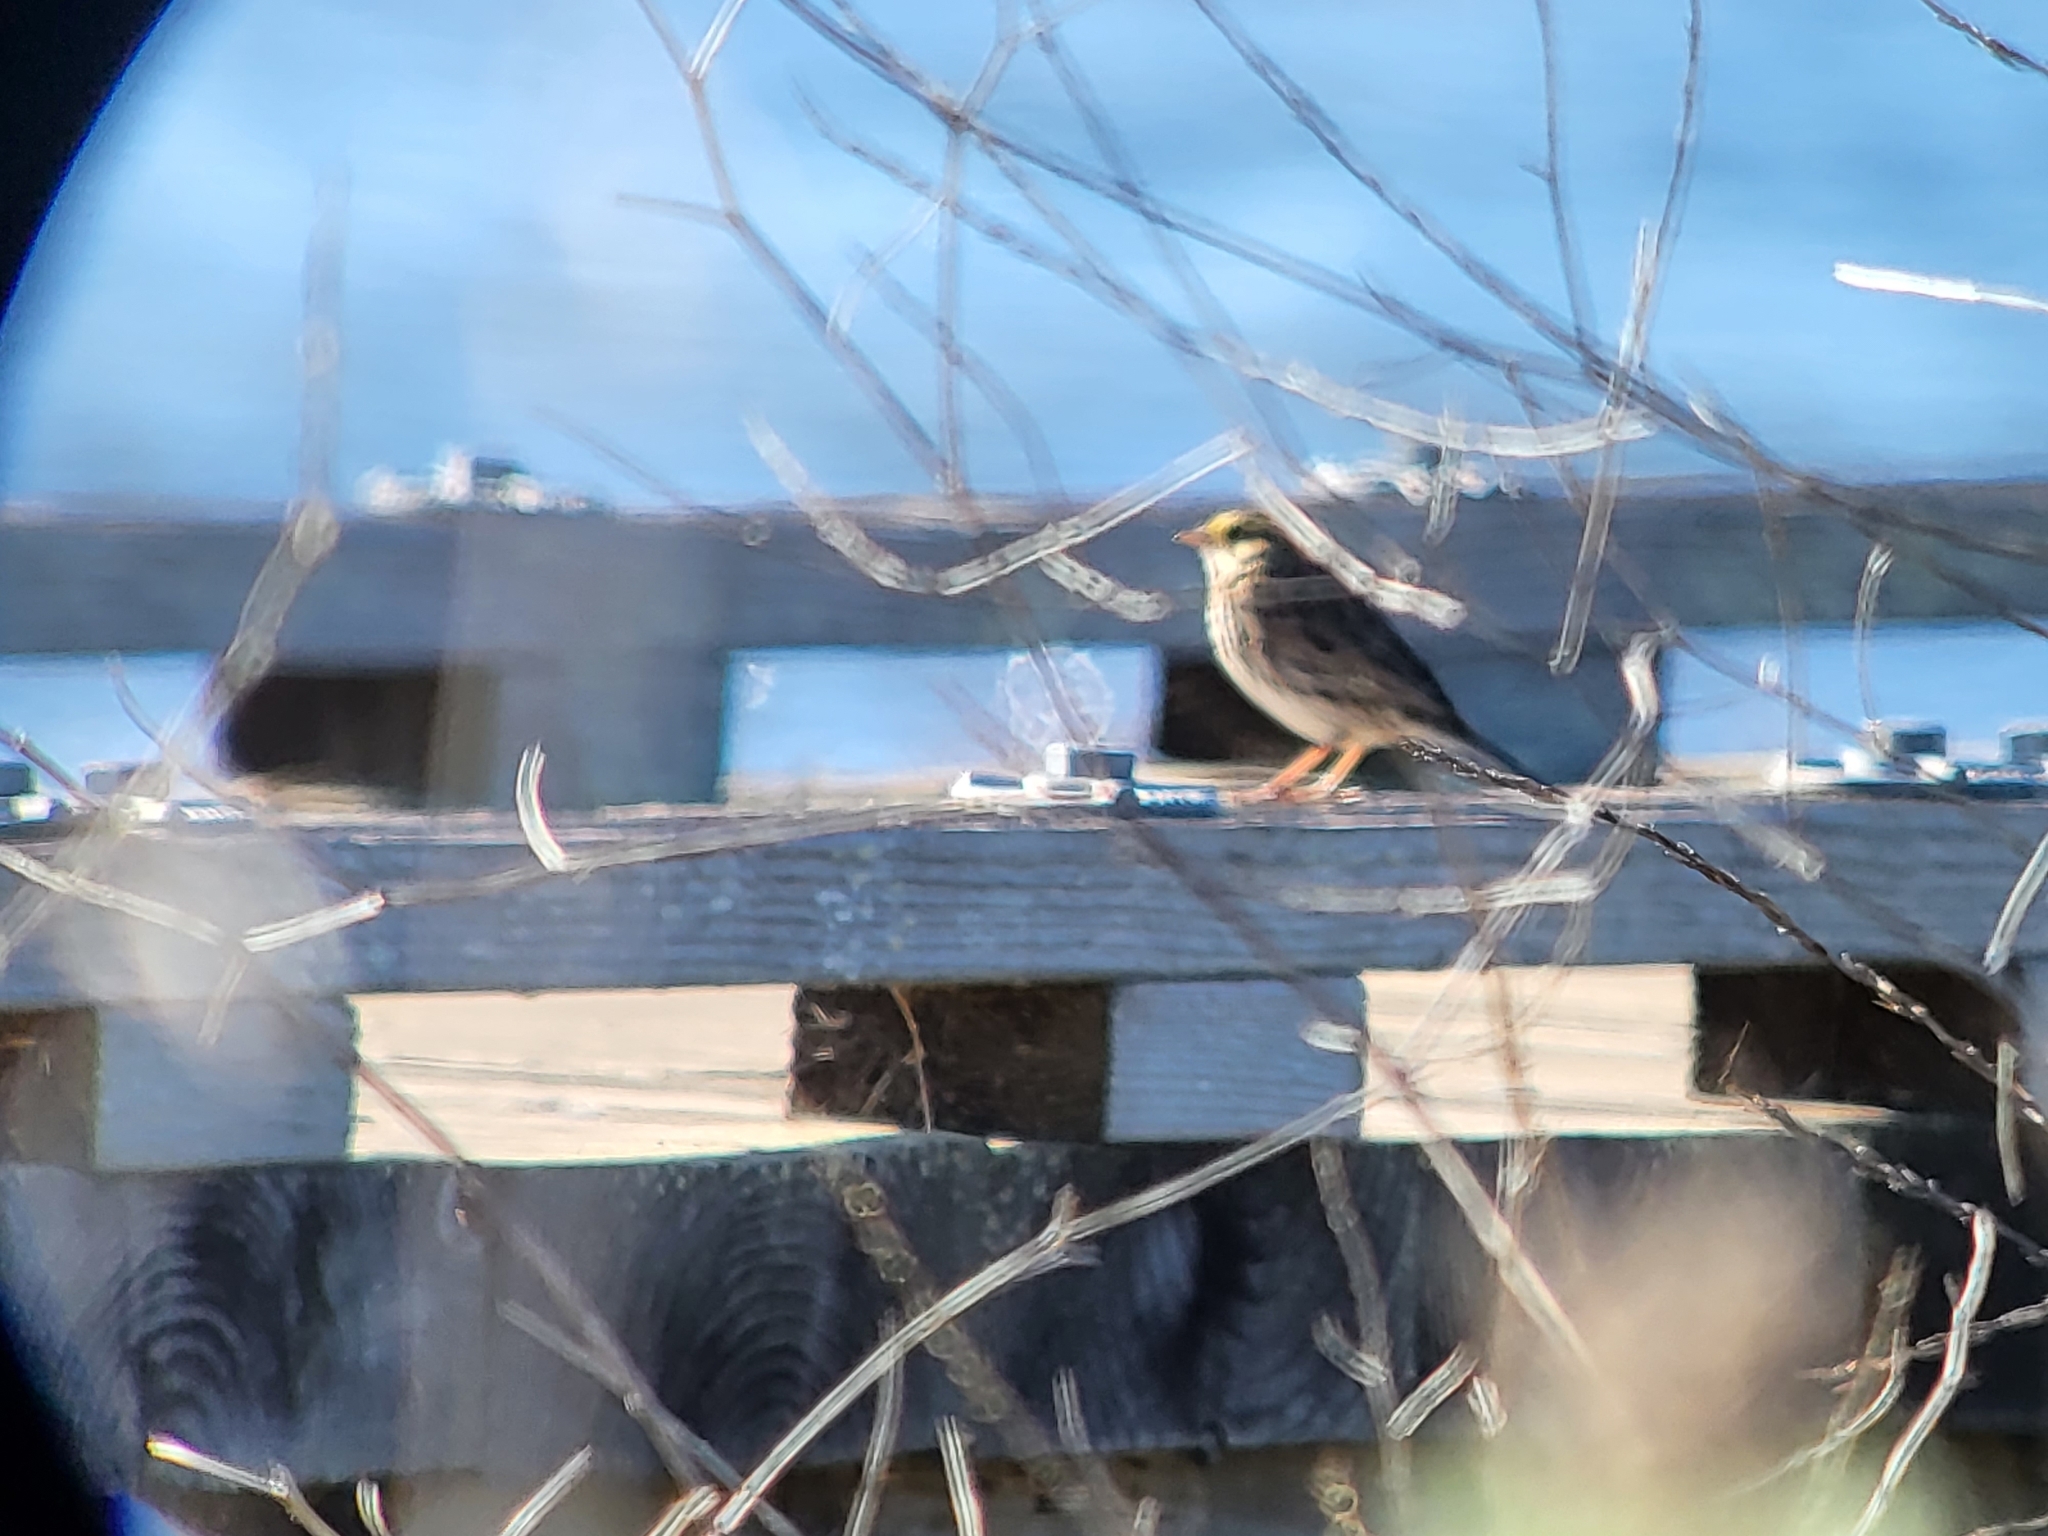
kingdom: Animalia
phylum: Chordata
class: Aves
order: Passeriformes
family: Passerellidae
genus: Passerculus
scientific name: Passerculus sandwichensis
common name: Savannah sparrow
